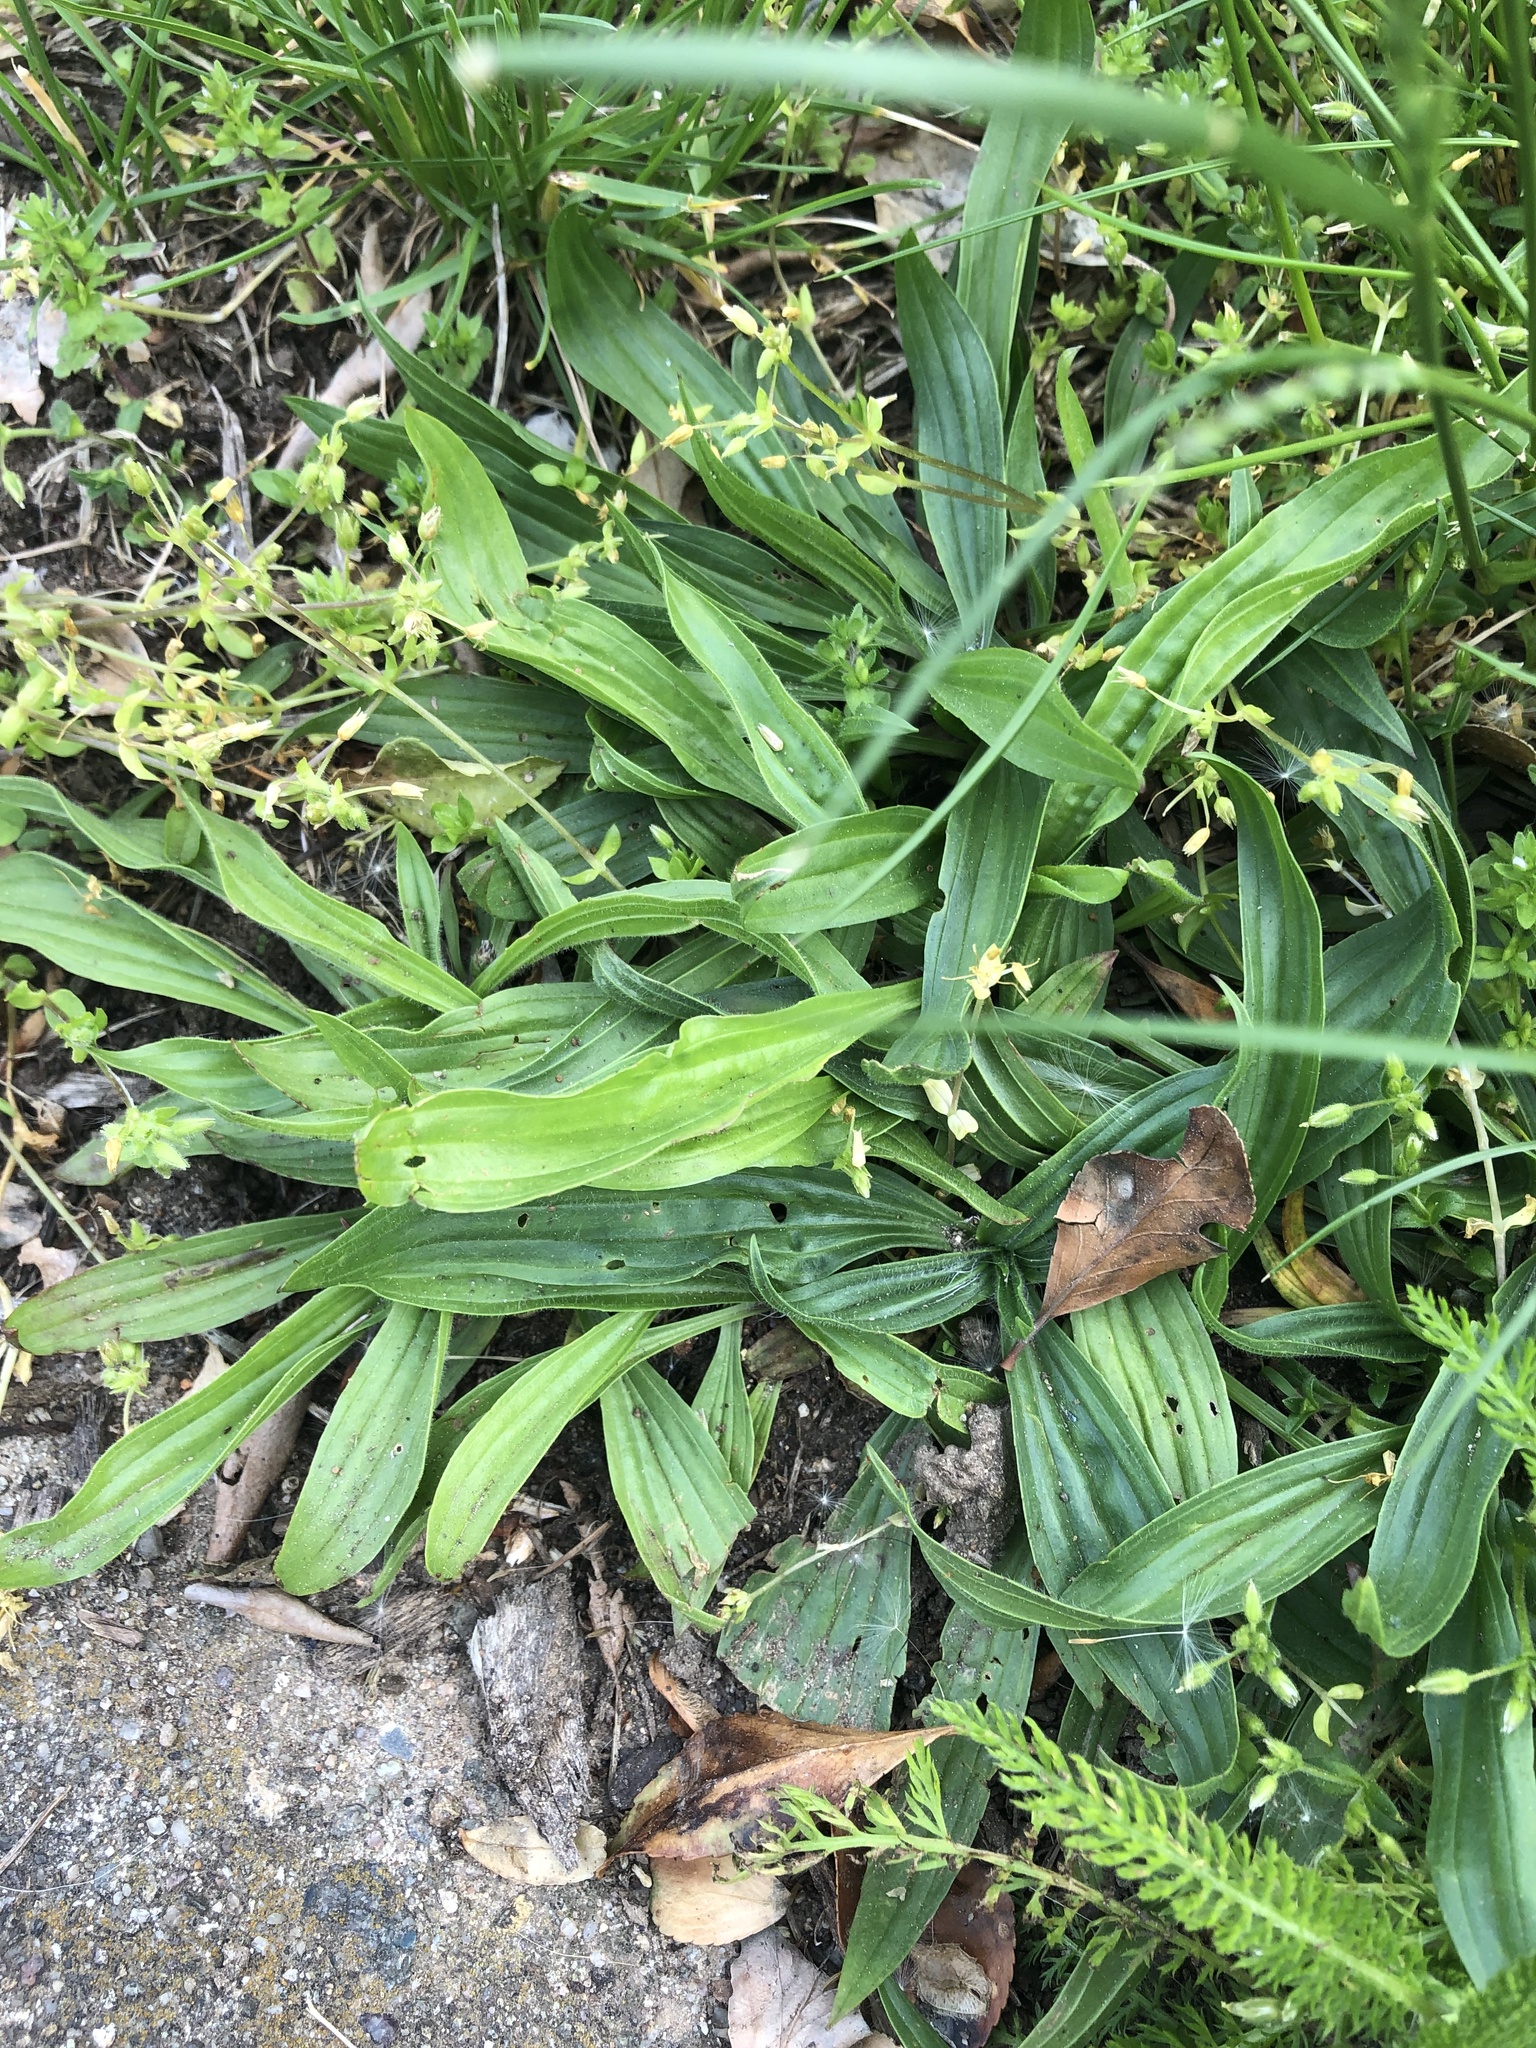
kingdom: Plantae
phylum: Tracheophyta
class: Magnoliopsida
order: Lamiales
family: Plantaginaceae
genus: Plantago
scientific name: Plantago lanceolata
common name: Ribwort plantain
